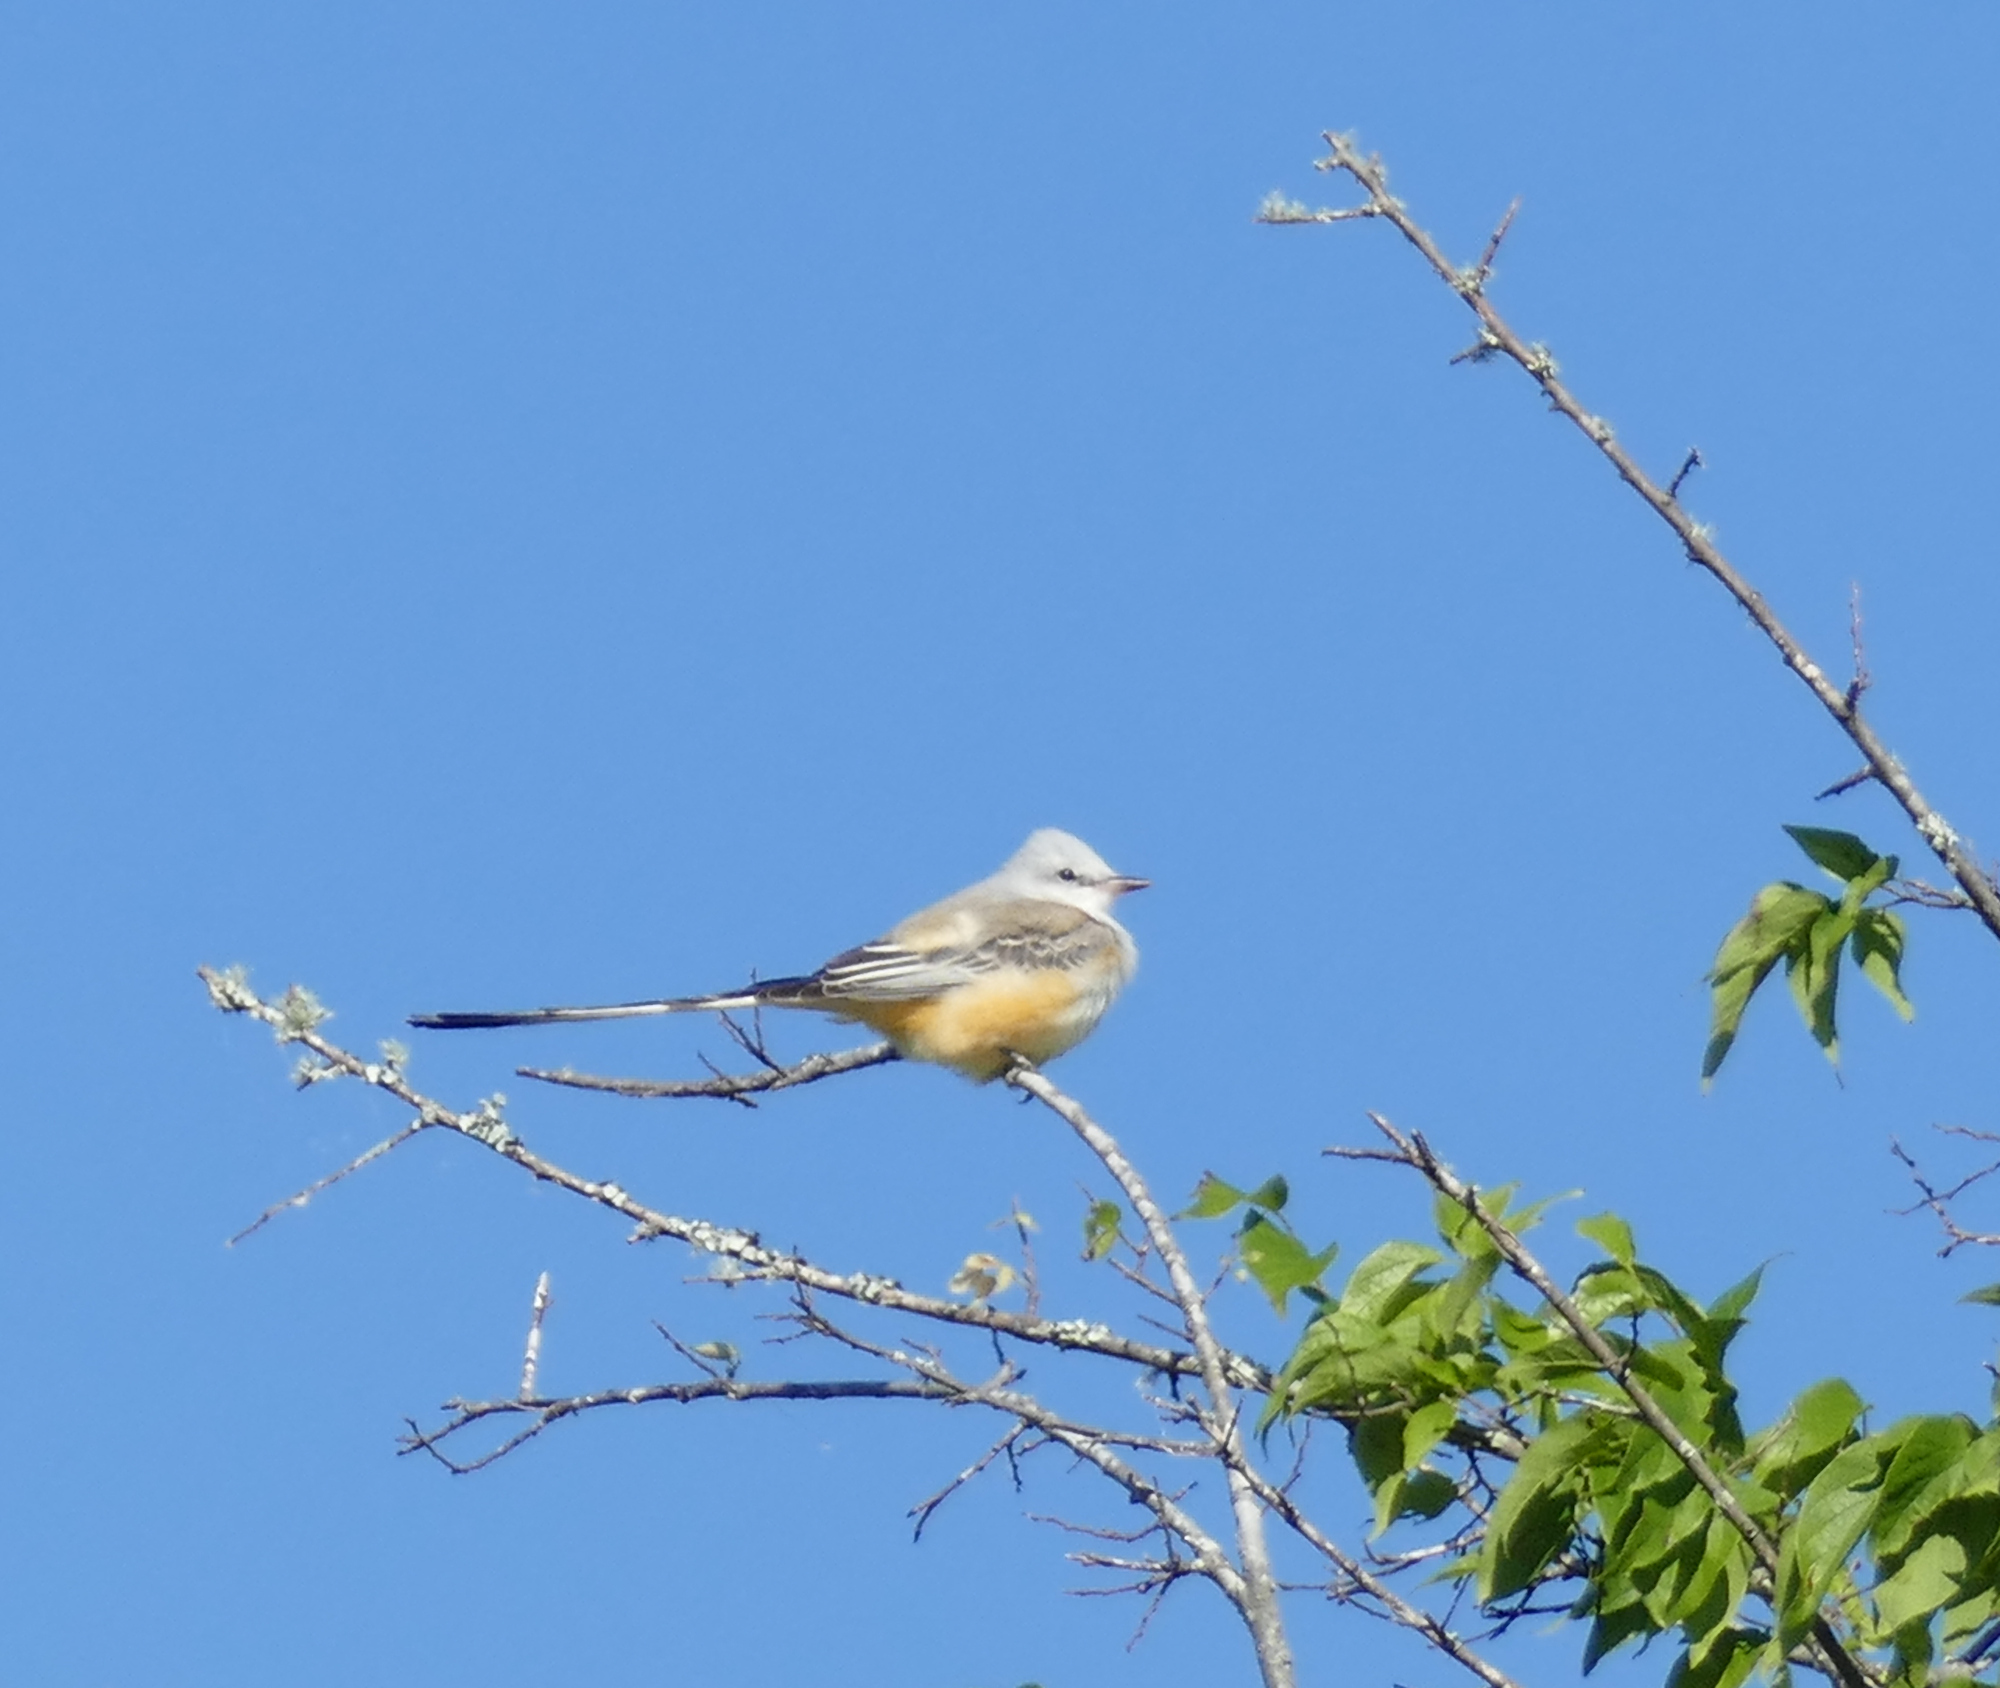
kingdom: Animalia
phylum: Chordata
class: Aves
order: Passeriformes
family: Tyrannidae
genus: Tyrannus
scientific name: Tyrannus forficatus
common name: Scissor-tailed flycatcher
